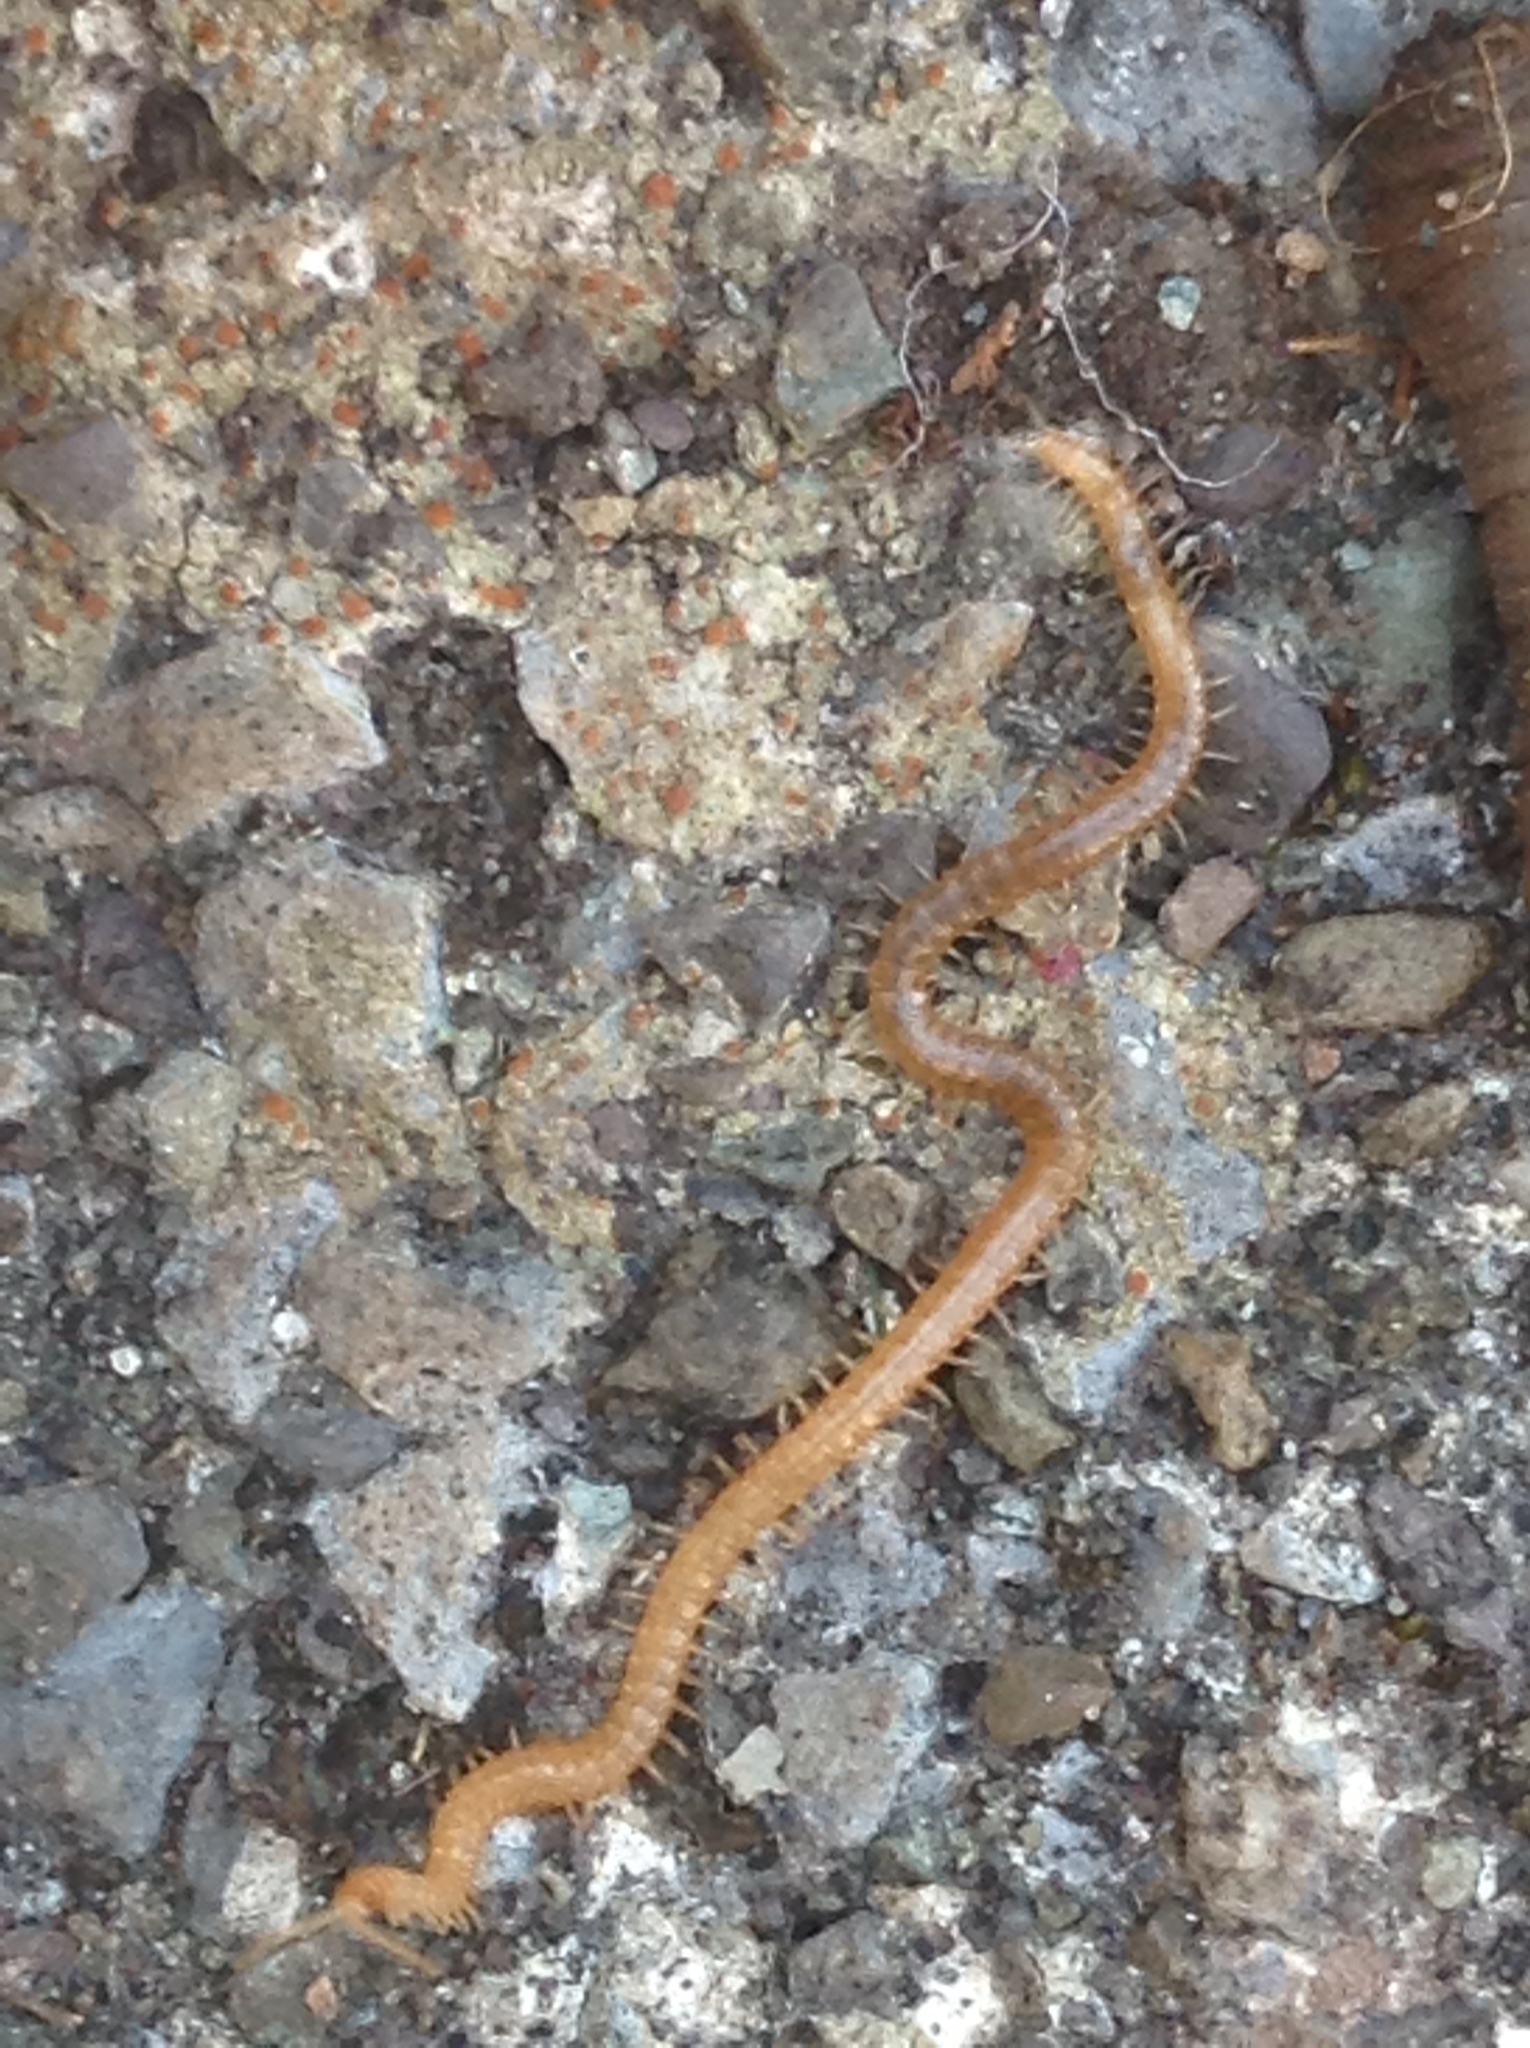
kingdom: Animalia
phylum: Arthropoda
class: Chilopoda
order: Geophilomorpha
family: Himantariidae
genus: Stigmatogaster
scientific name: Stigmatogaster subterranea
